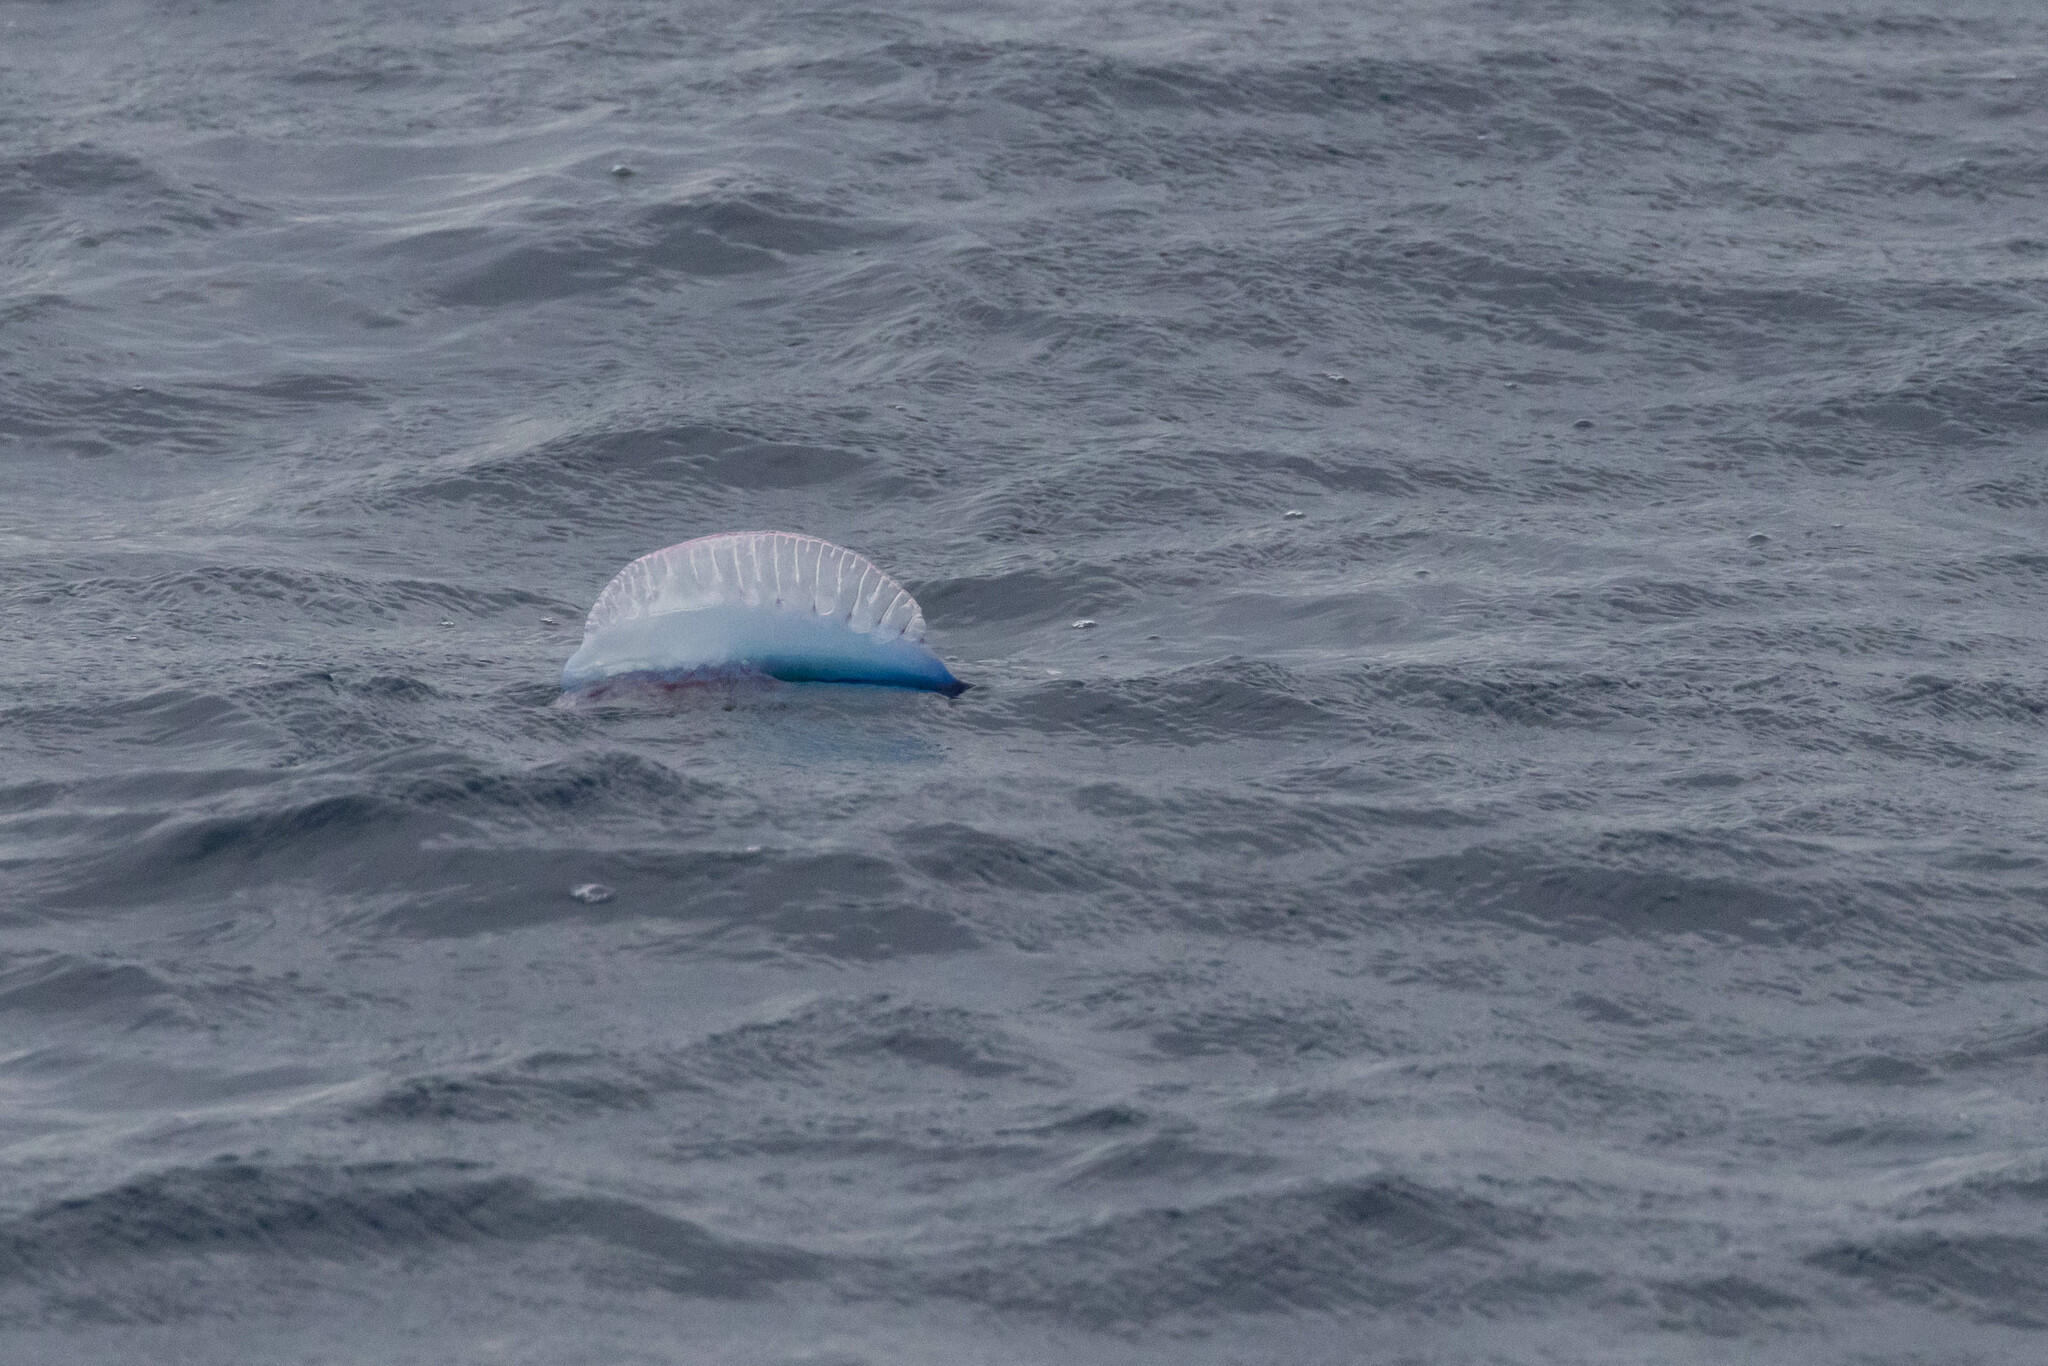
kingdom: Animalia
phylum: Cnidaria
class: Hydrozoa
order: Siphonophorae
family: Physaliidae
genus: Physalia
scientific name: Physalia physalis
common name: Portuguese man-of-war
